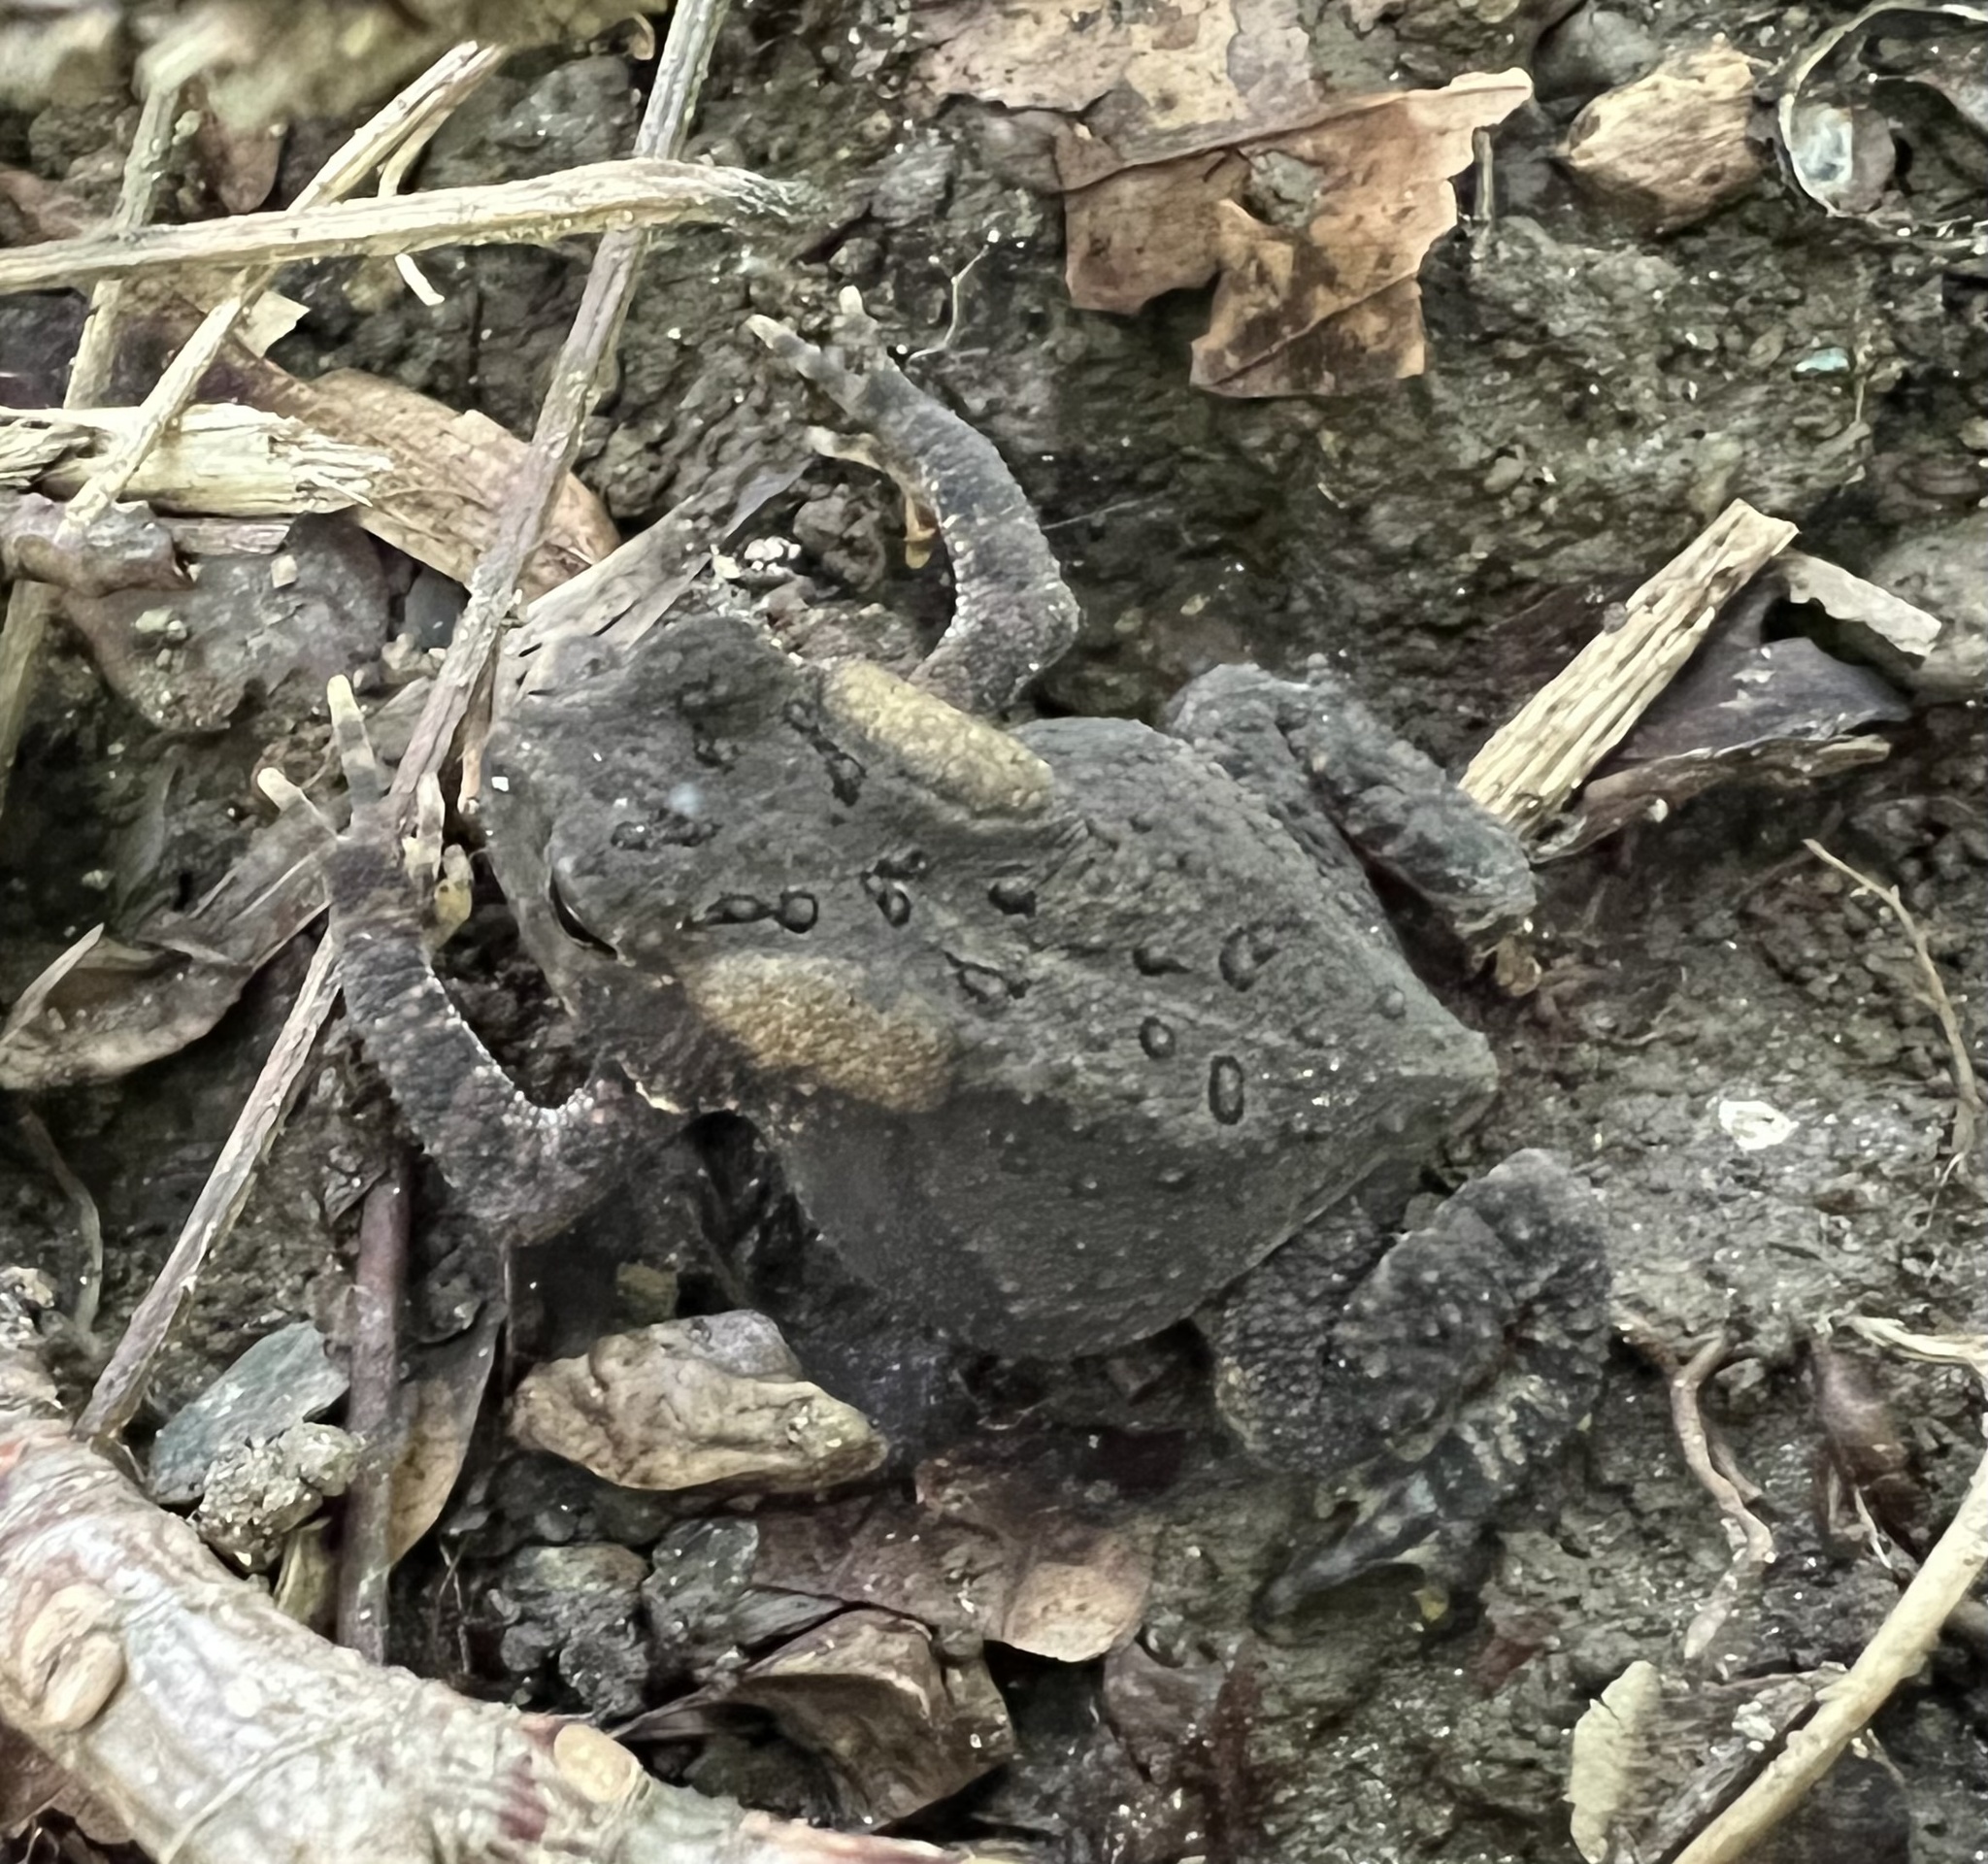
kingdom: Animalia
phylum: Chordata
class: Amphibia
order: Anura
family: Bufonidae
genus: Anaxyrus
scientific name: Anaxyrus americanus
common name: American toad
